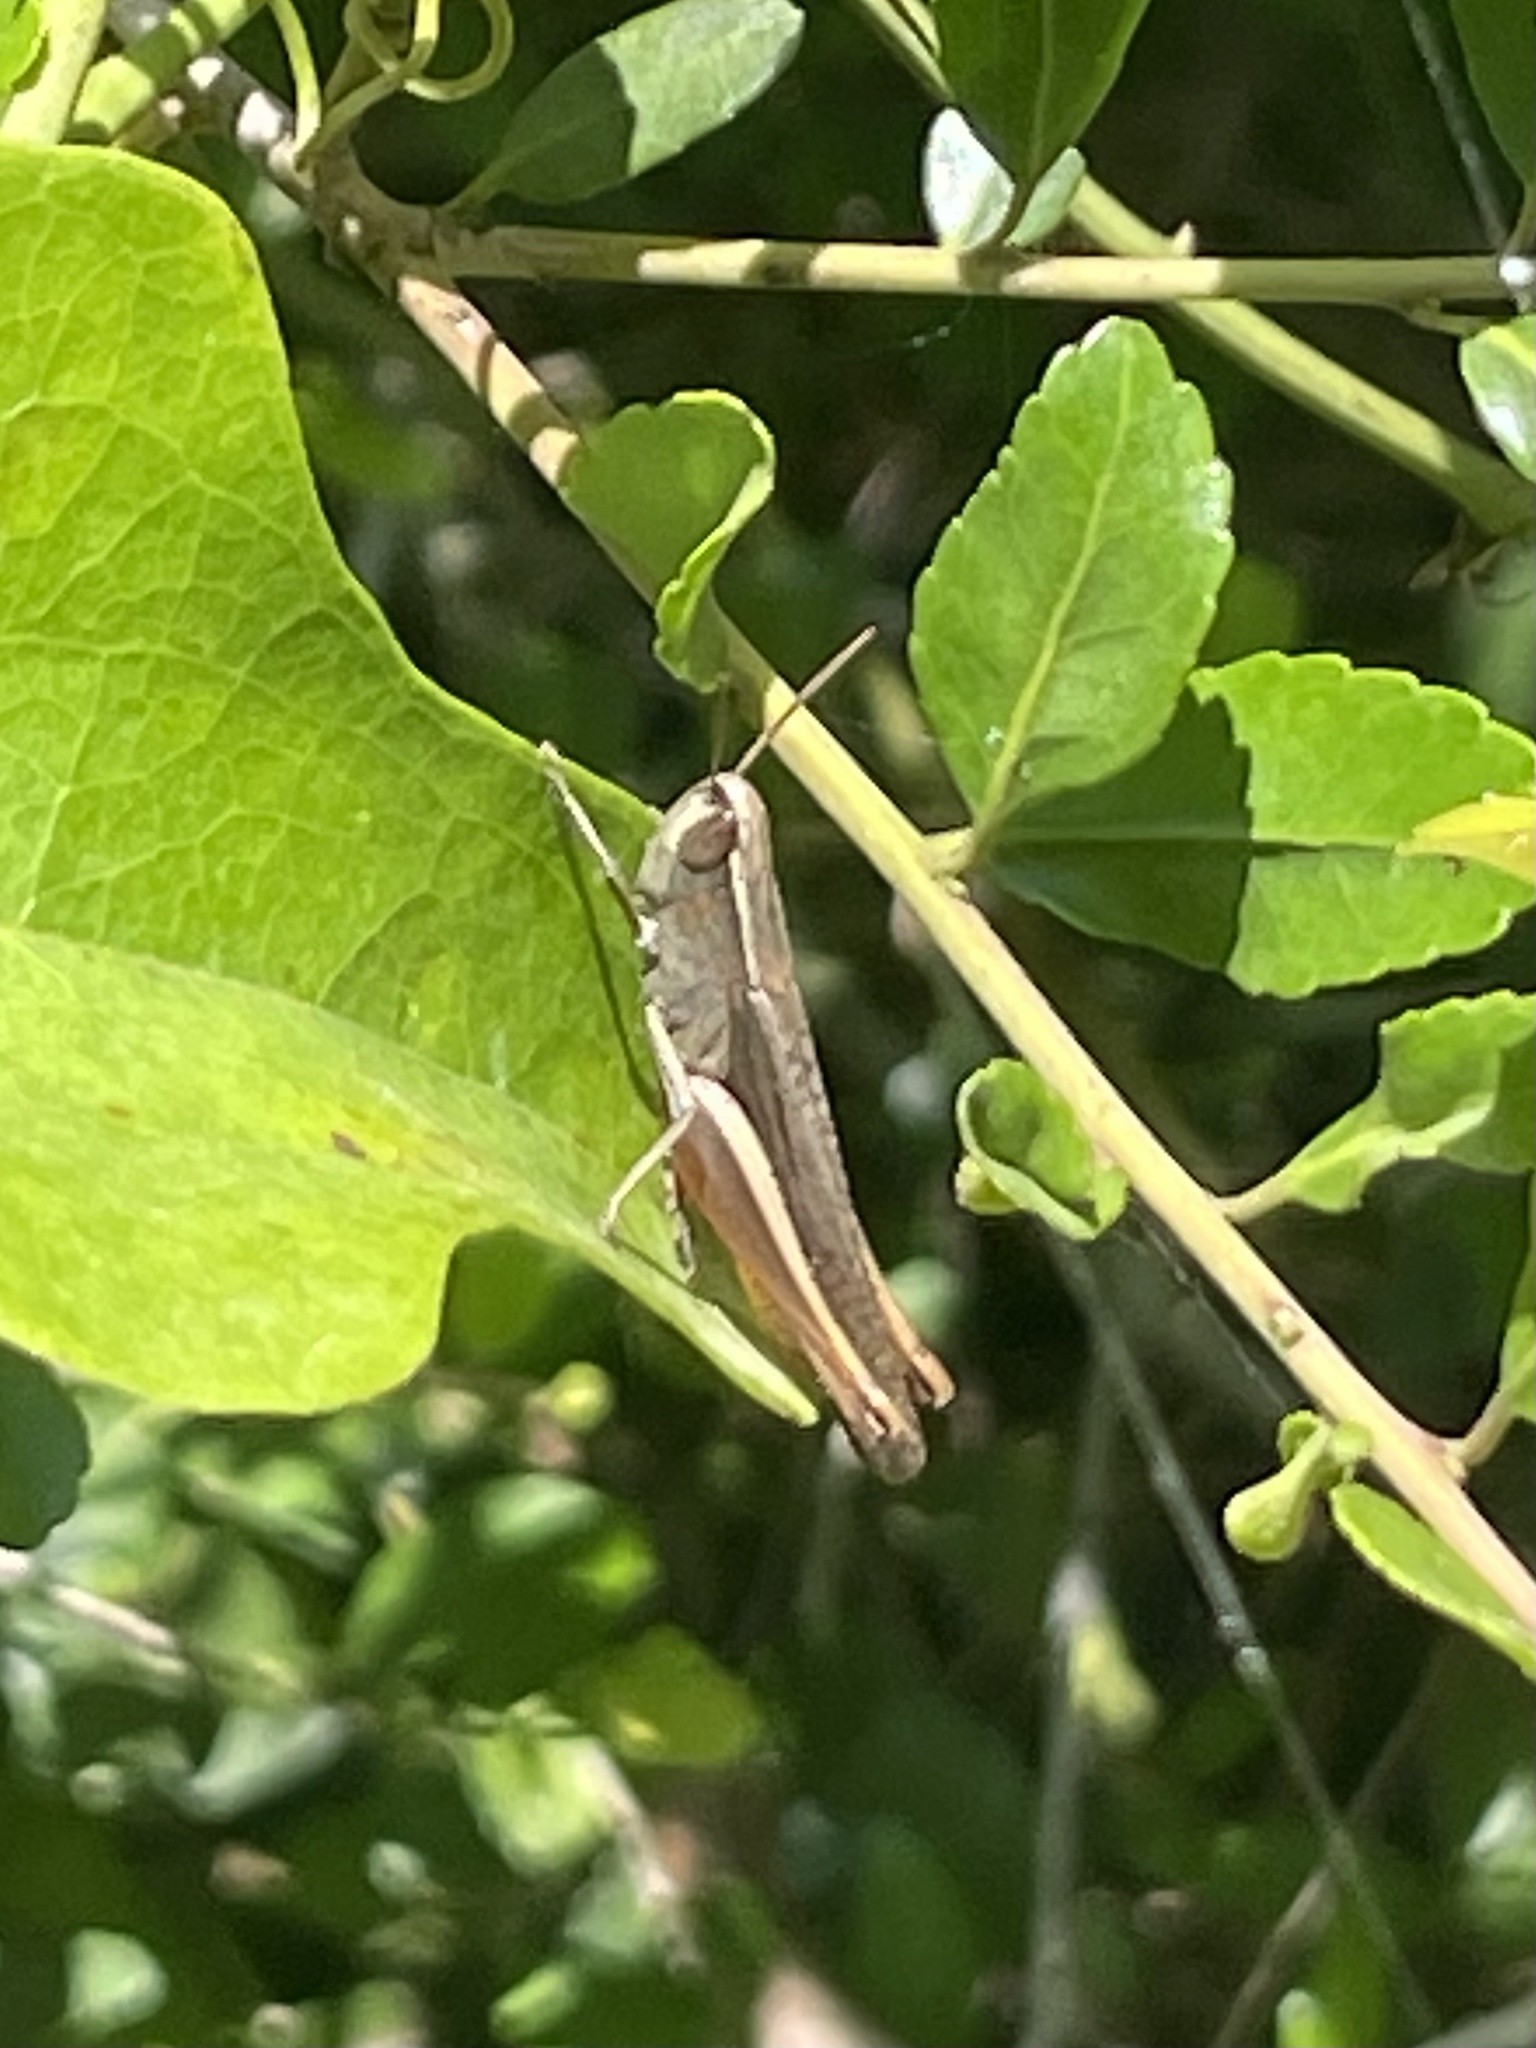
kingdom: Animalia
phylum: Arthropoda
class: Insecta
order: Orthoptera
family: Acrididae
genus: Amblytropidia
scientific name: Amblytropidia mysteca
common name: Brown winter grasshopper
